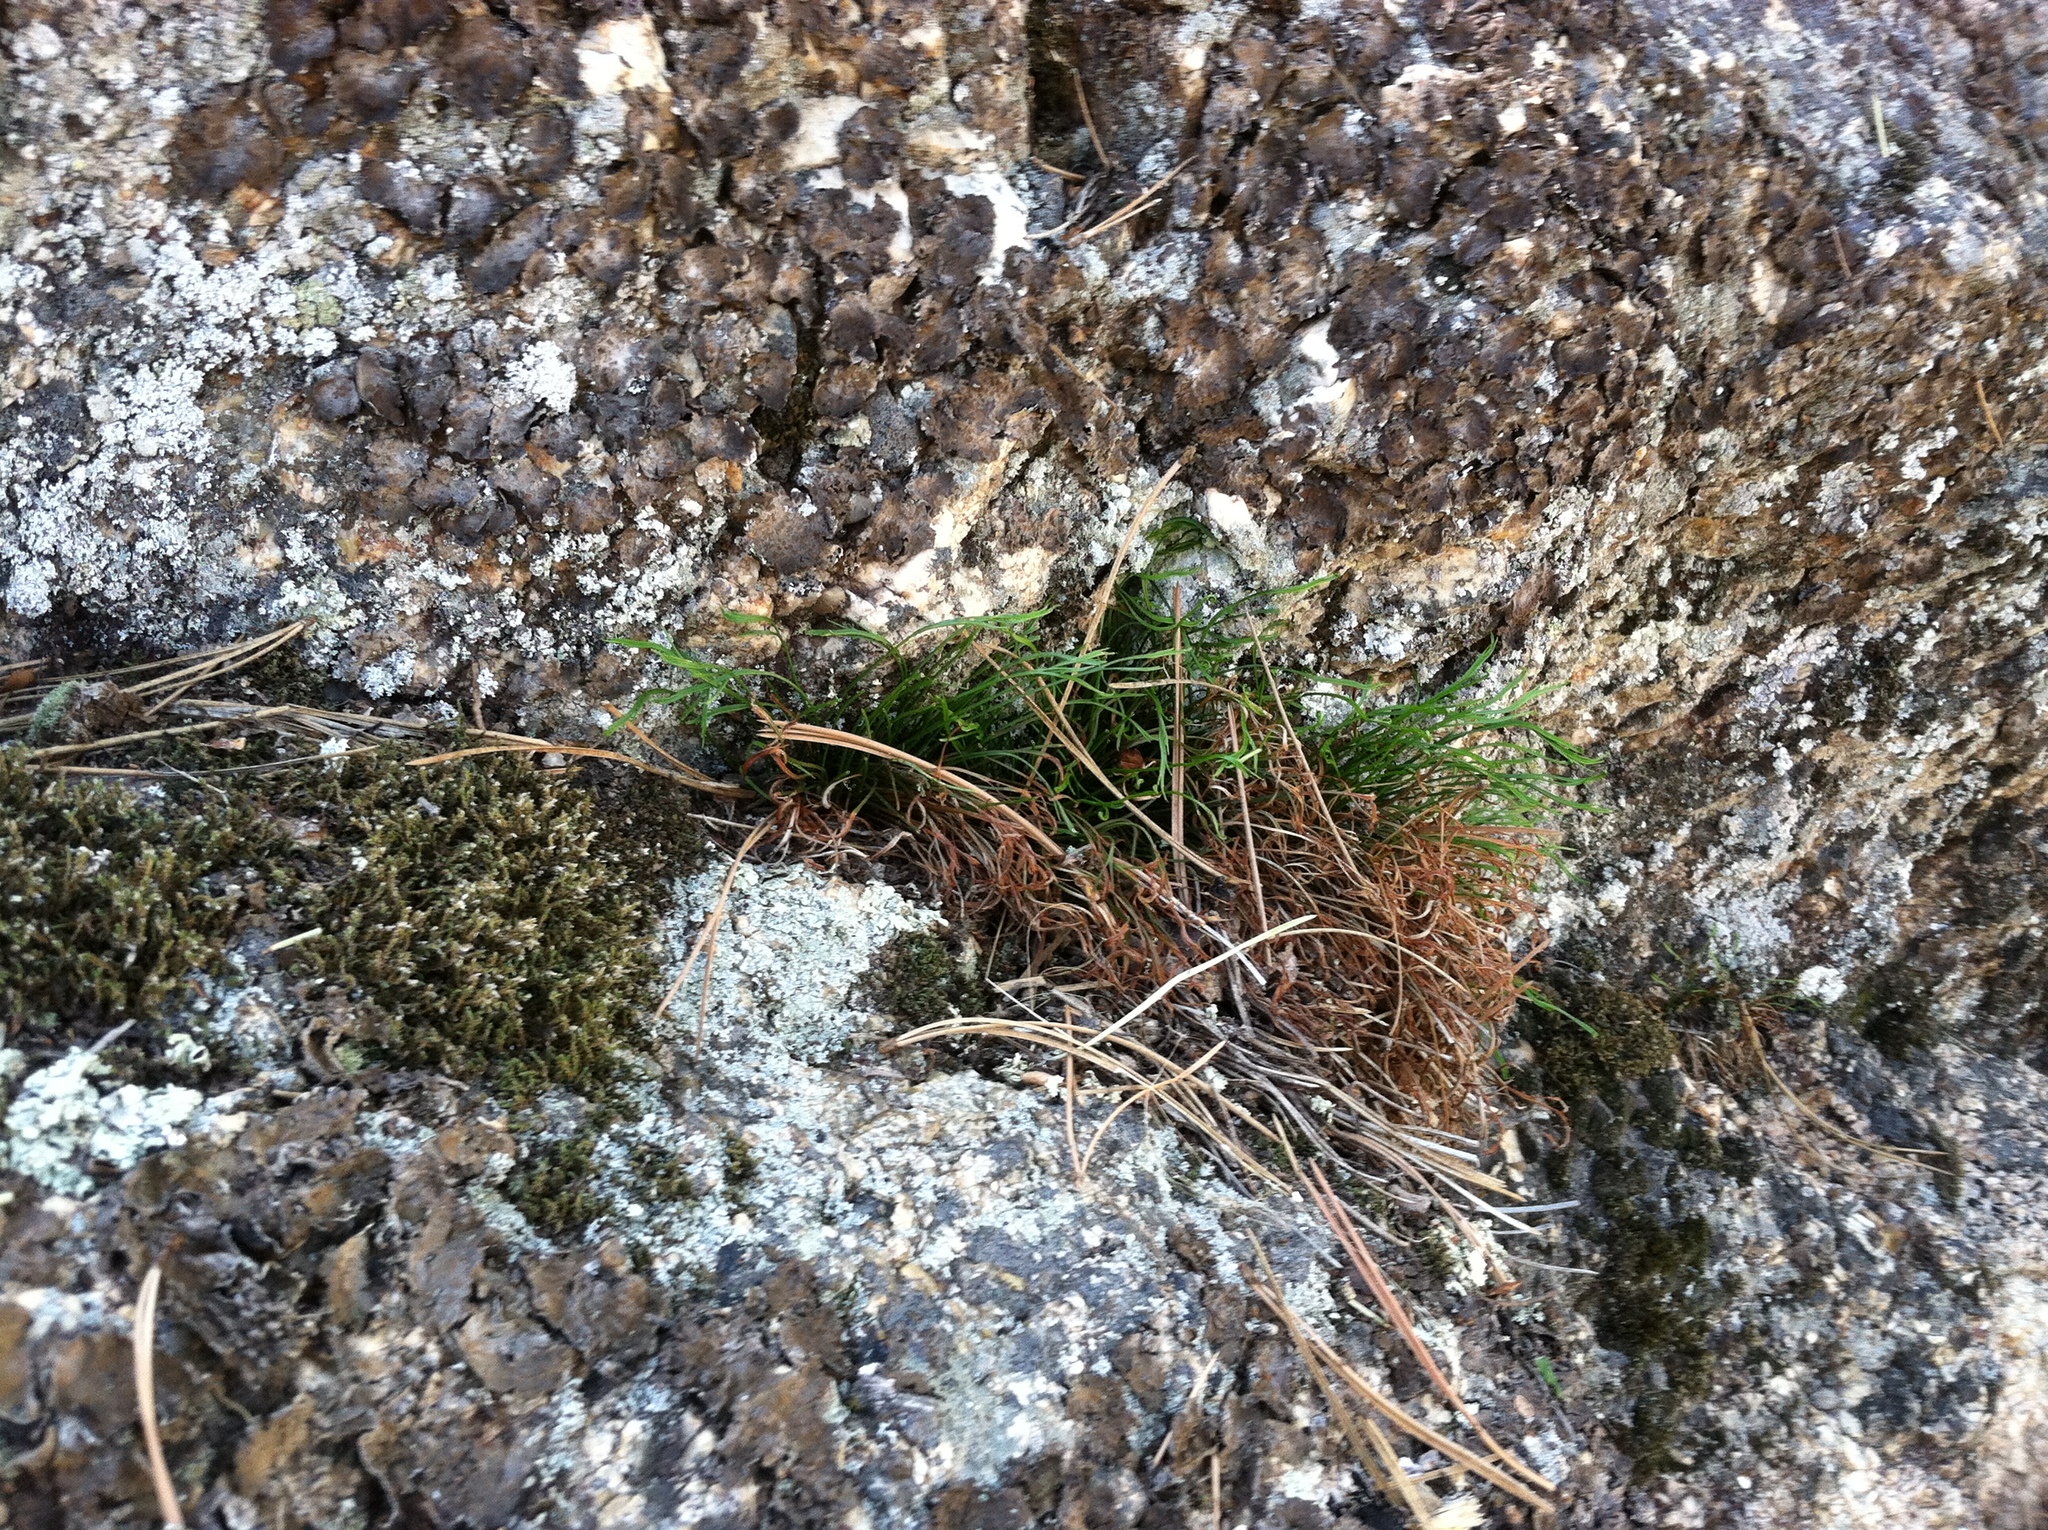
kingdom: Plantae
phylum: Tracheophyta
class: Polypodiopsida
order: Polypodiales
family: Aspleniaceae
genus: Asplenium
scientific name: Asplenium septentrionale
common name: Forked spleenwort
